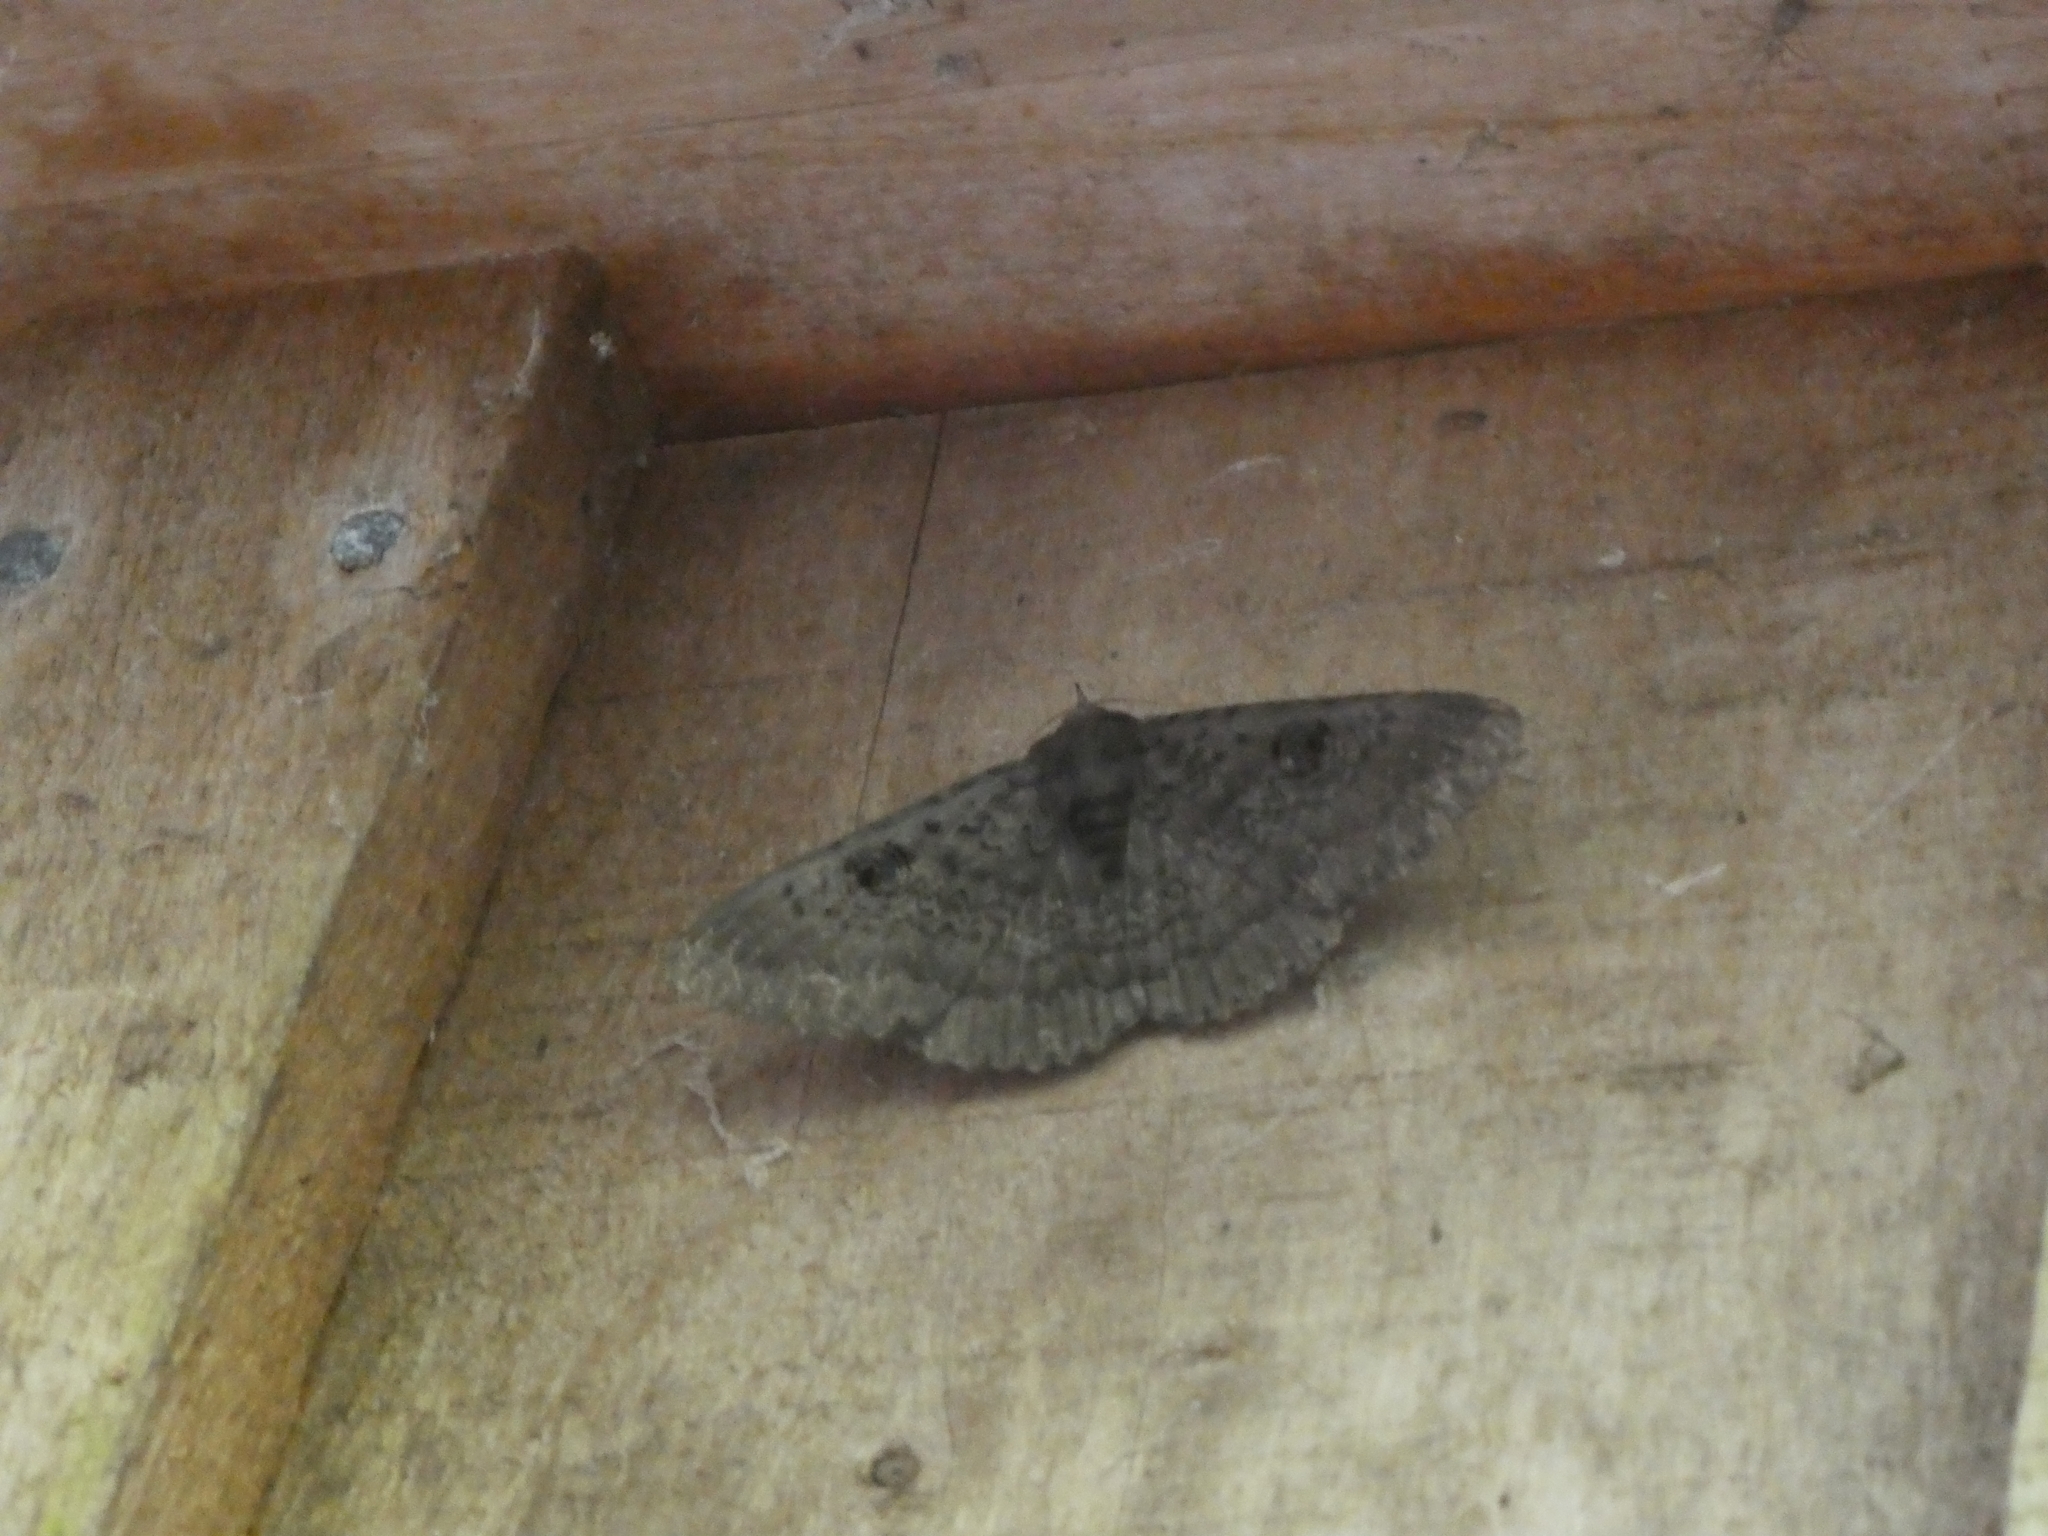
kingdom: Animalia
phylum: Arthropoda
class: Insecta
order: Lepidoptera
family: Erebidae
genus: Dasypodia
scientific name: Dasypodia cymatodes
